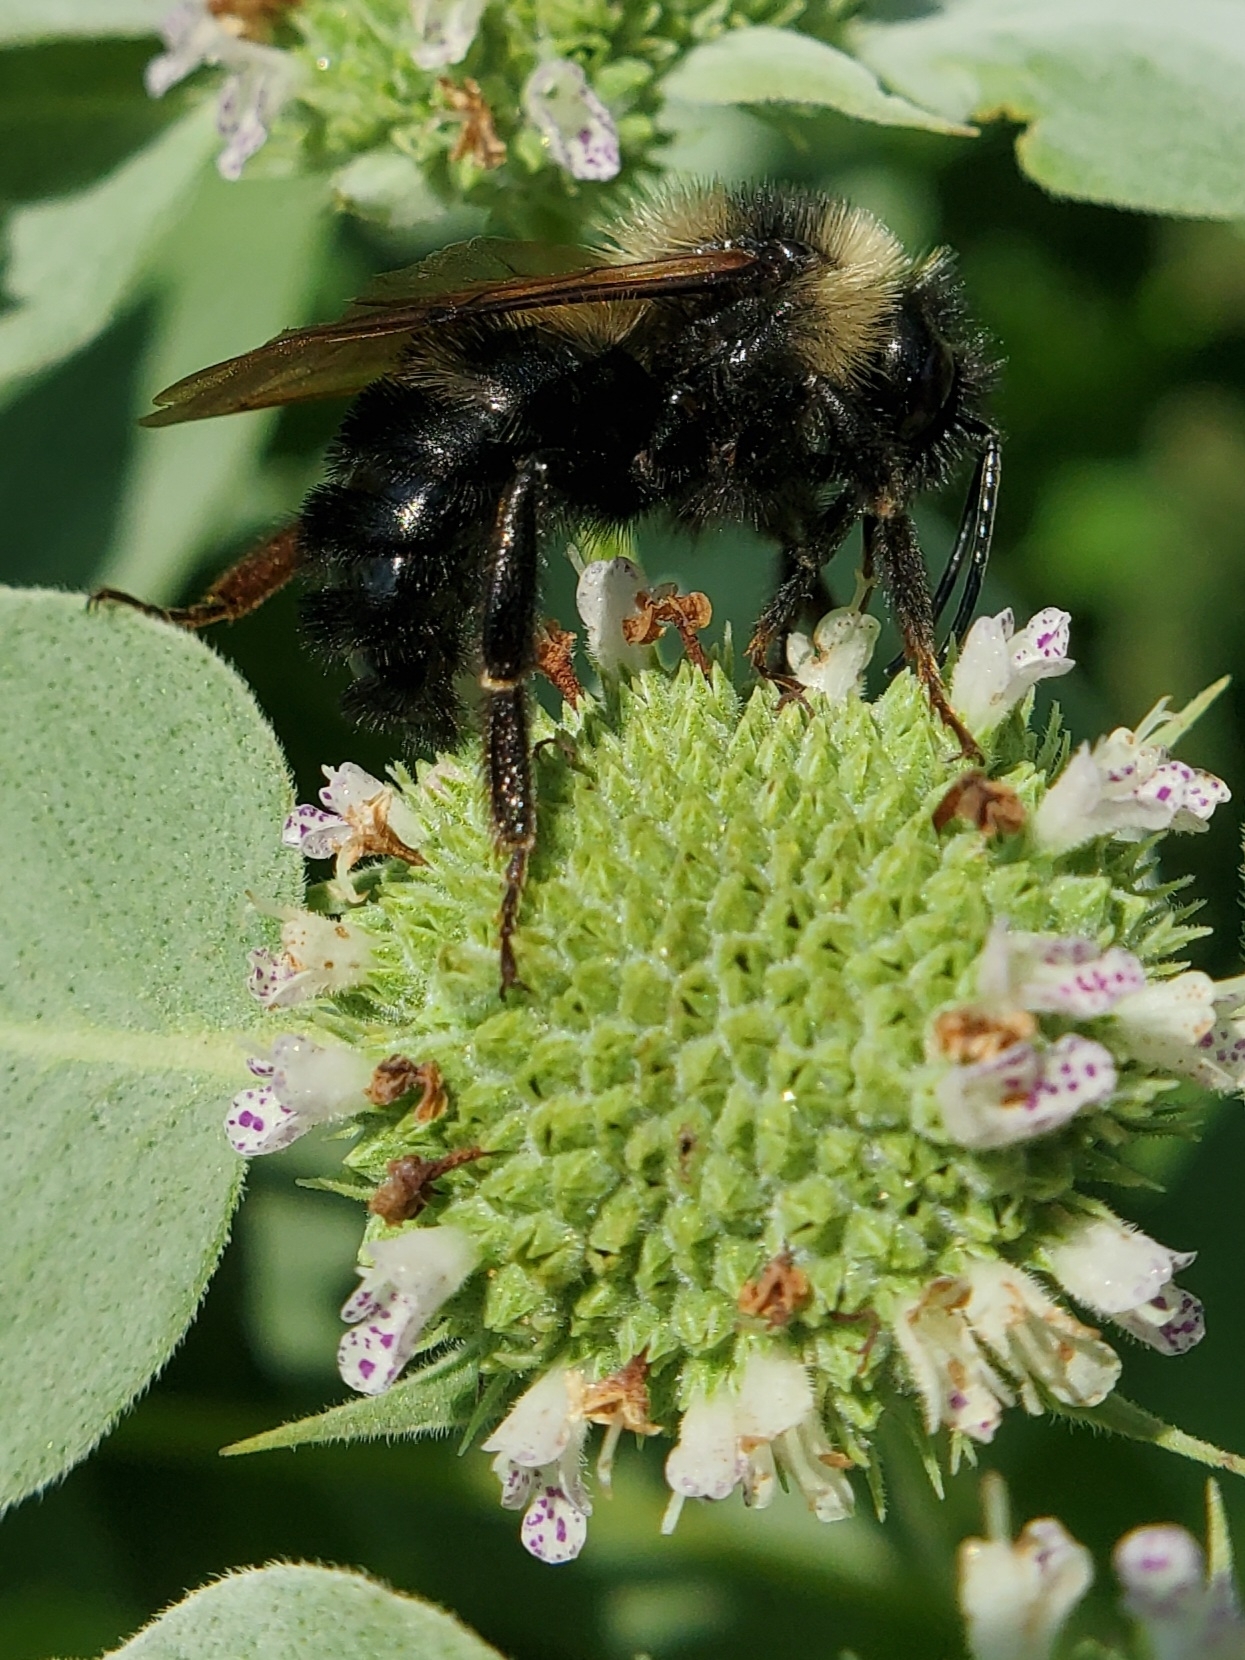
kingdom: Animalia
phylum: Arthropoda
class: Insecta
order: Hymenoptera
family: Apidae
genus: Bombus
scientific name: Bombus citrinus
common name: Lemon cuckoo bumble bee
